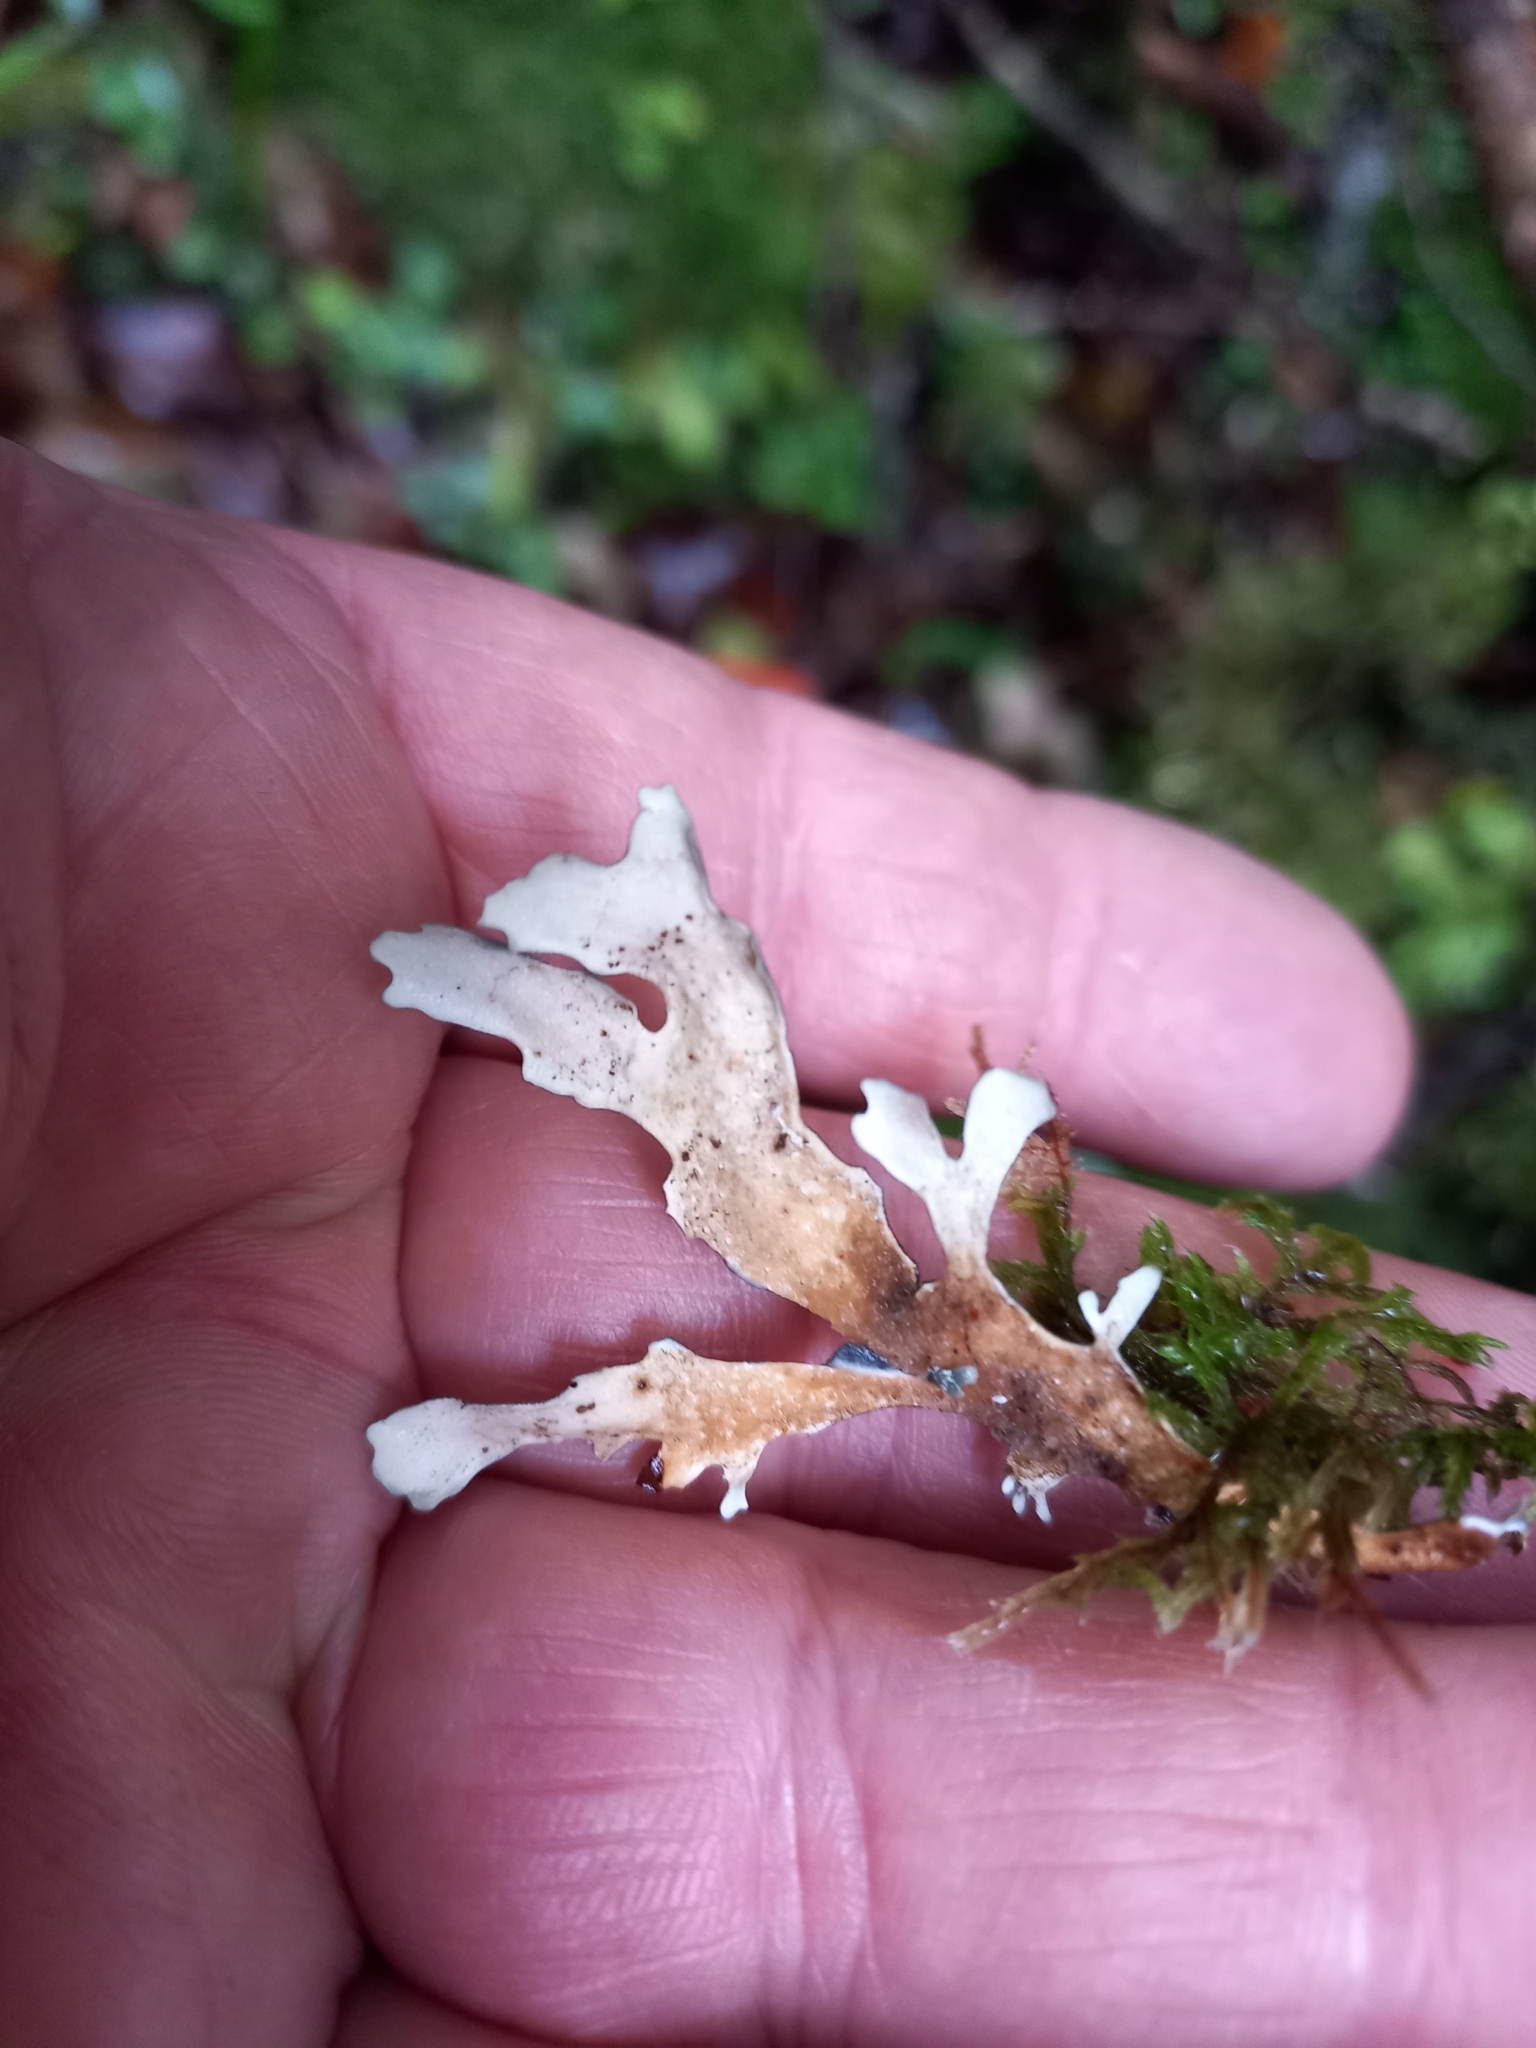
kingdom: Fungi
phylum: Ascomycota
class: Lecanoromycetes
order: Peltigerales
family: Lobariaceae
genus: Pseudocyphellaria
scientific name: Pseudocyphellaria dissimilis
